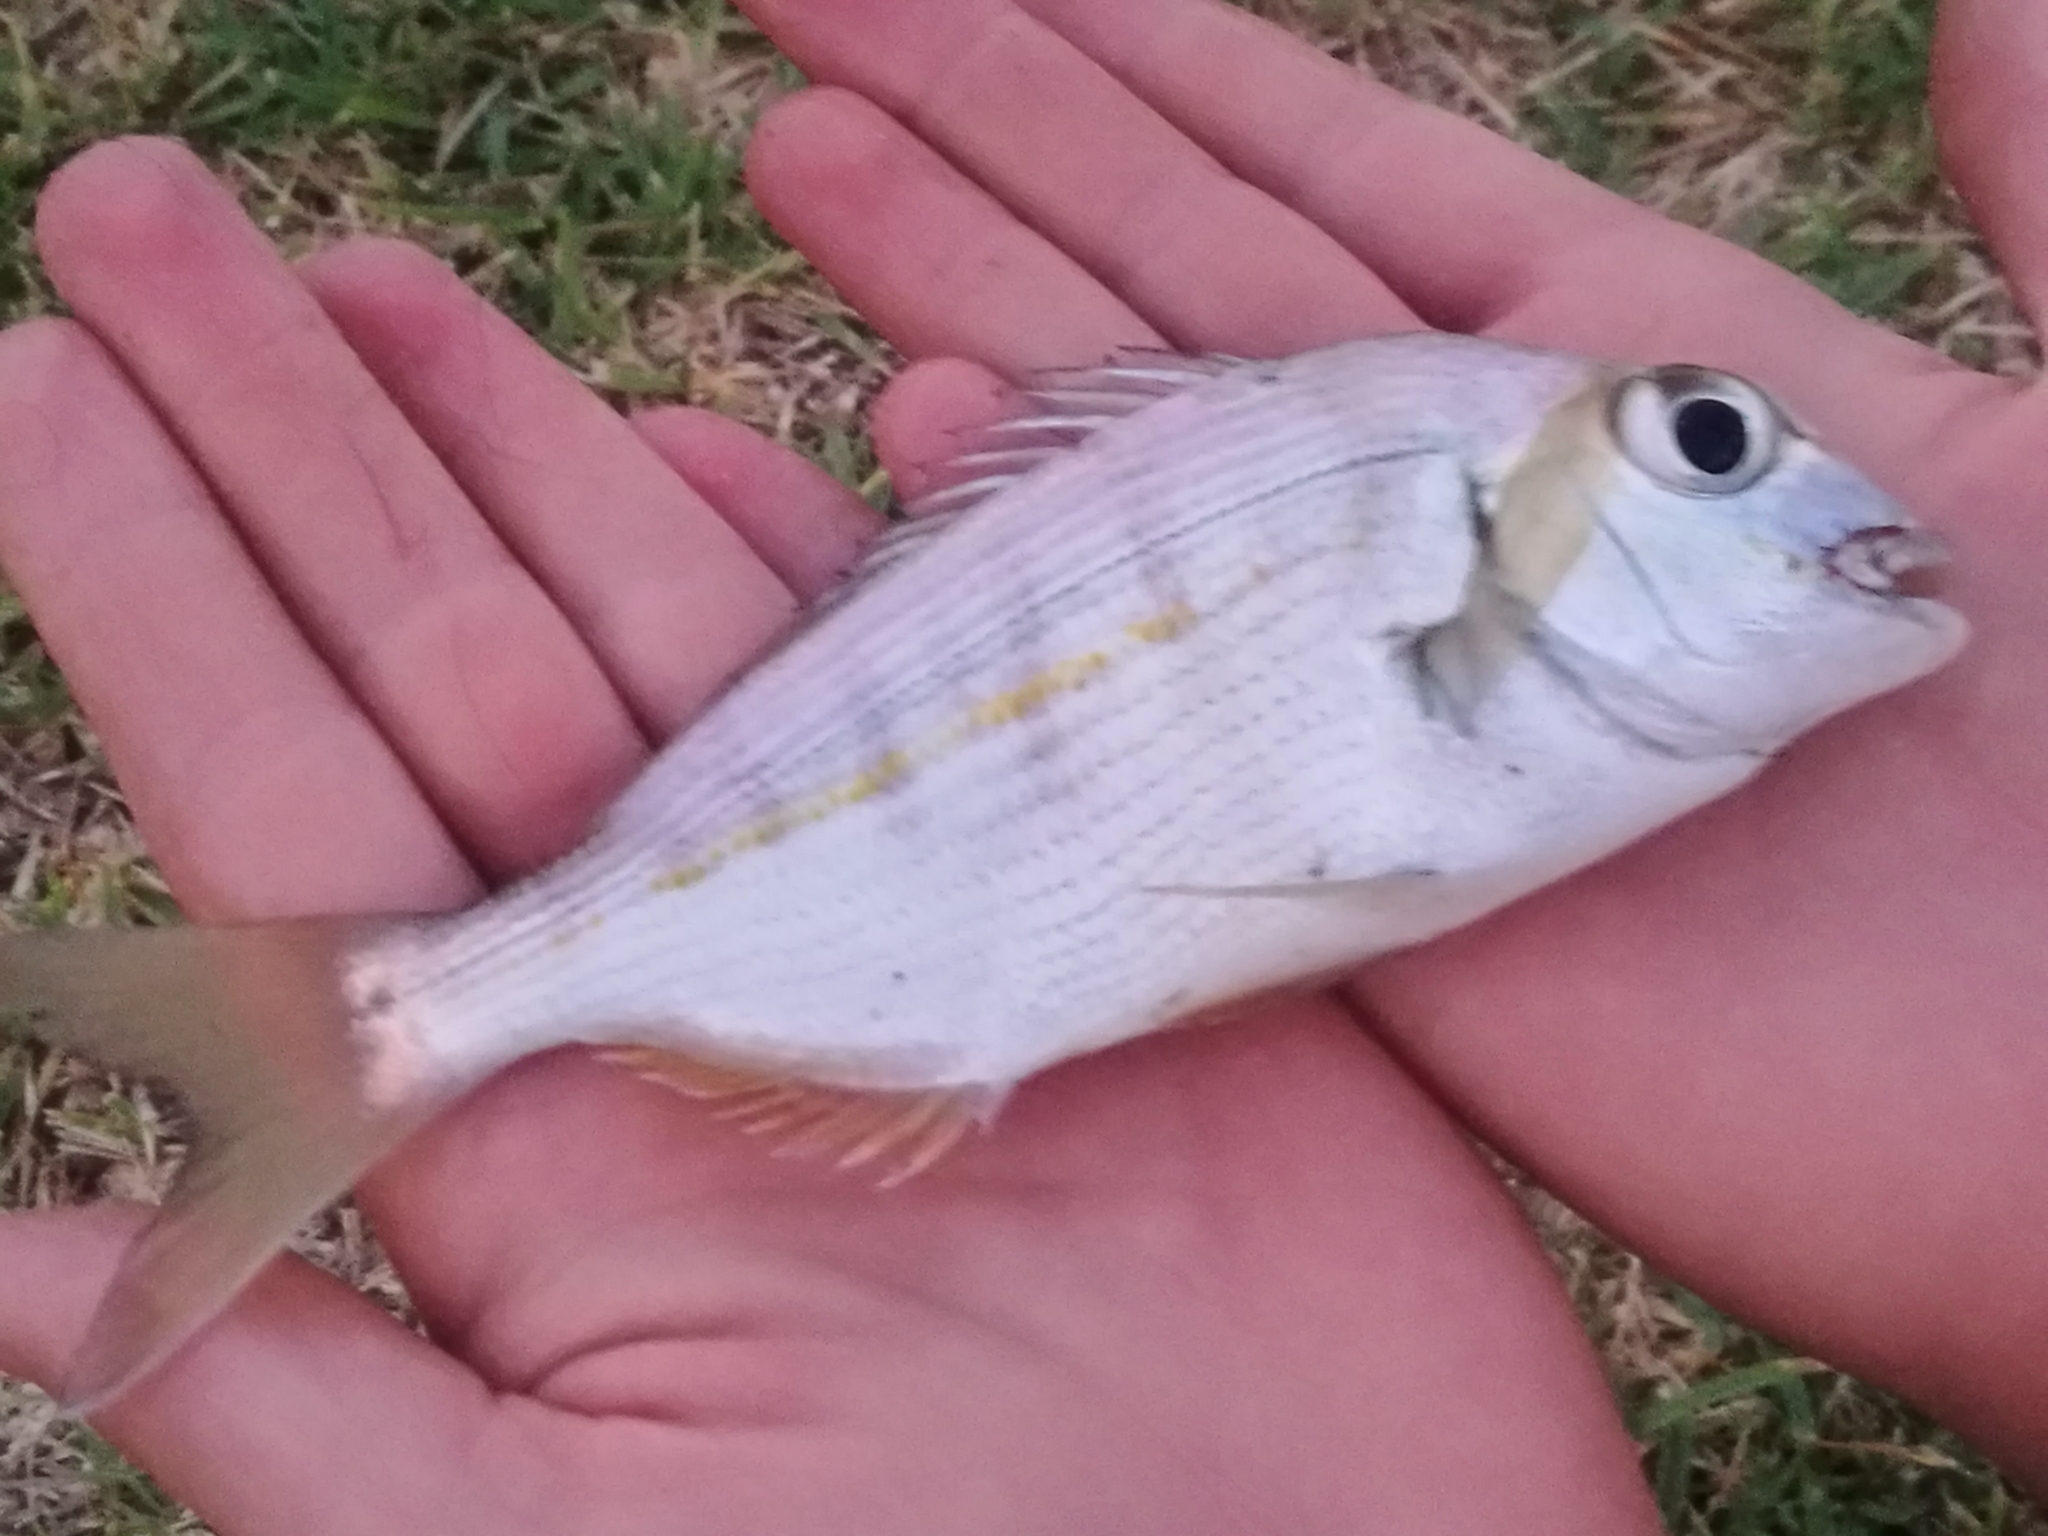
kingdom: Animalia
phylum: Chordata
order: Perciformes
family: Sparidae
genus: Rhabdosargus
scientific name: Rhabdosargus holubi
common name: Cape stumpnose
